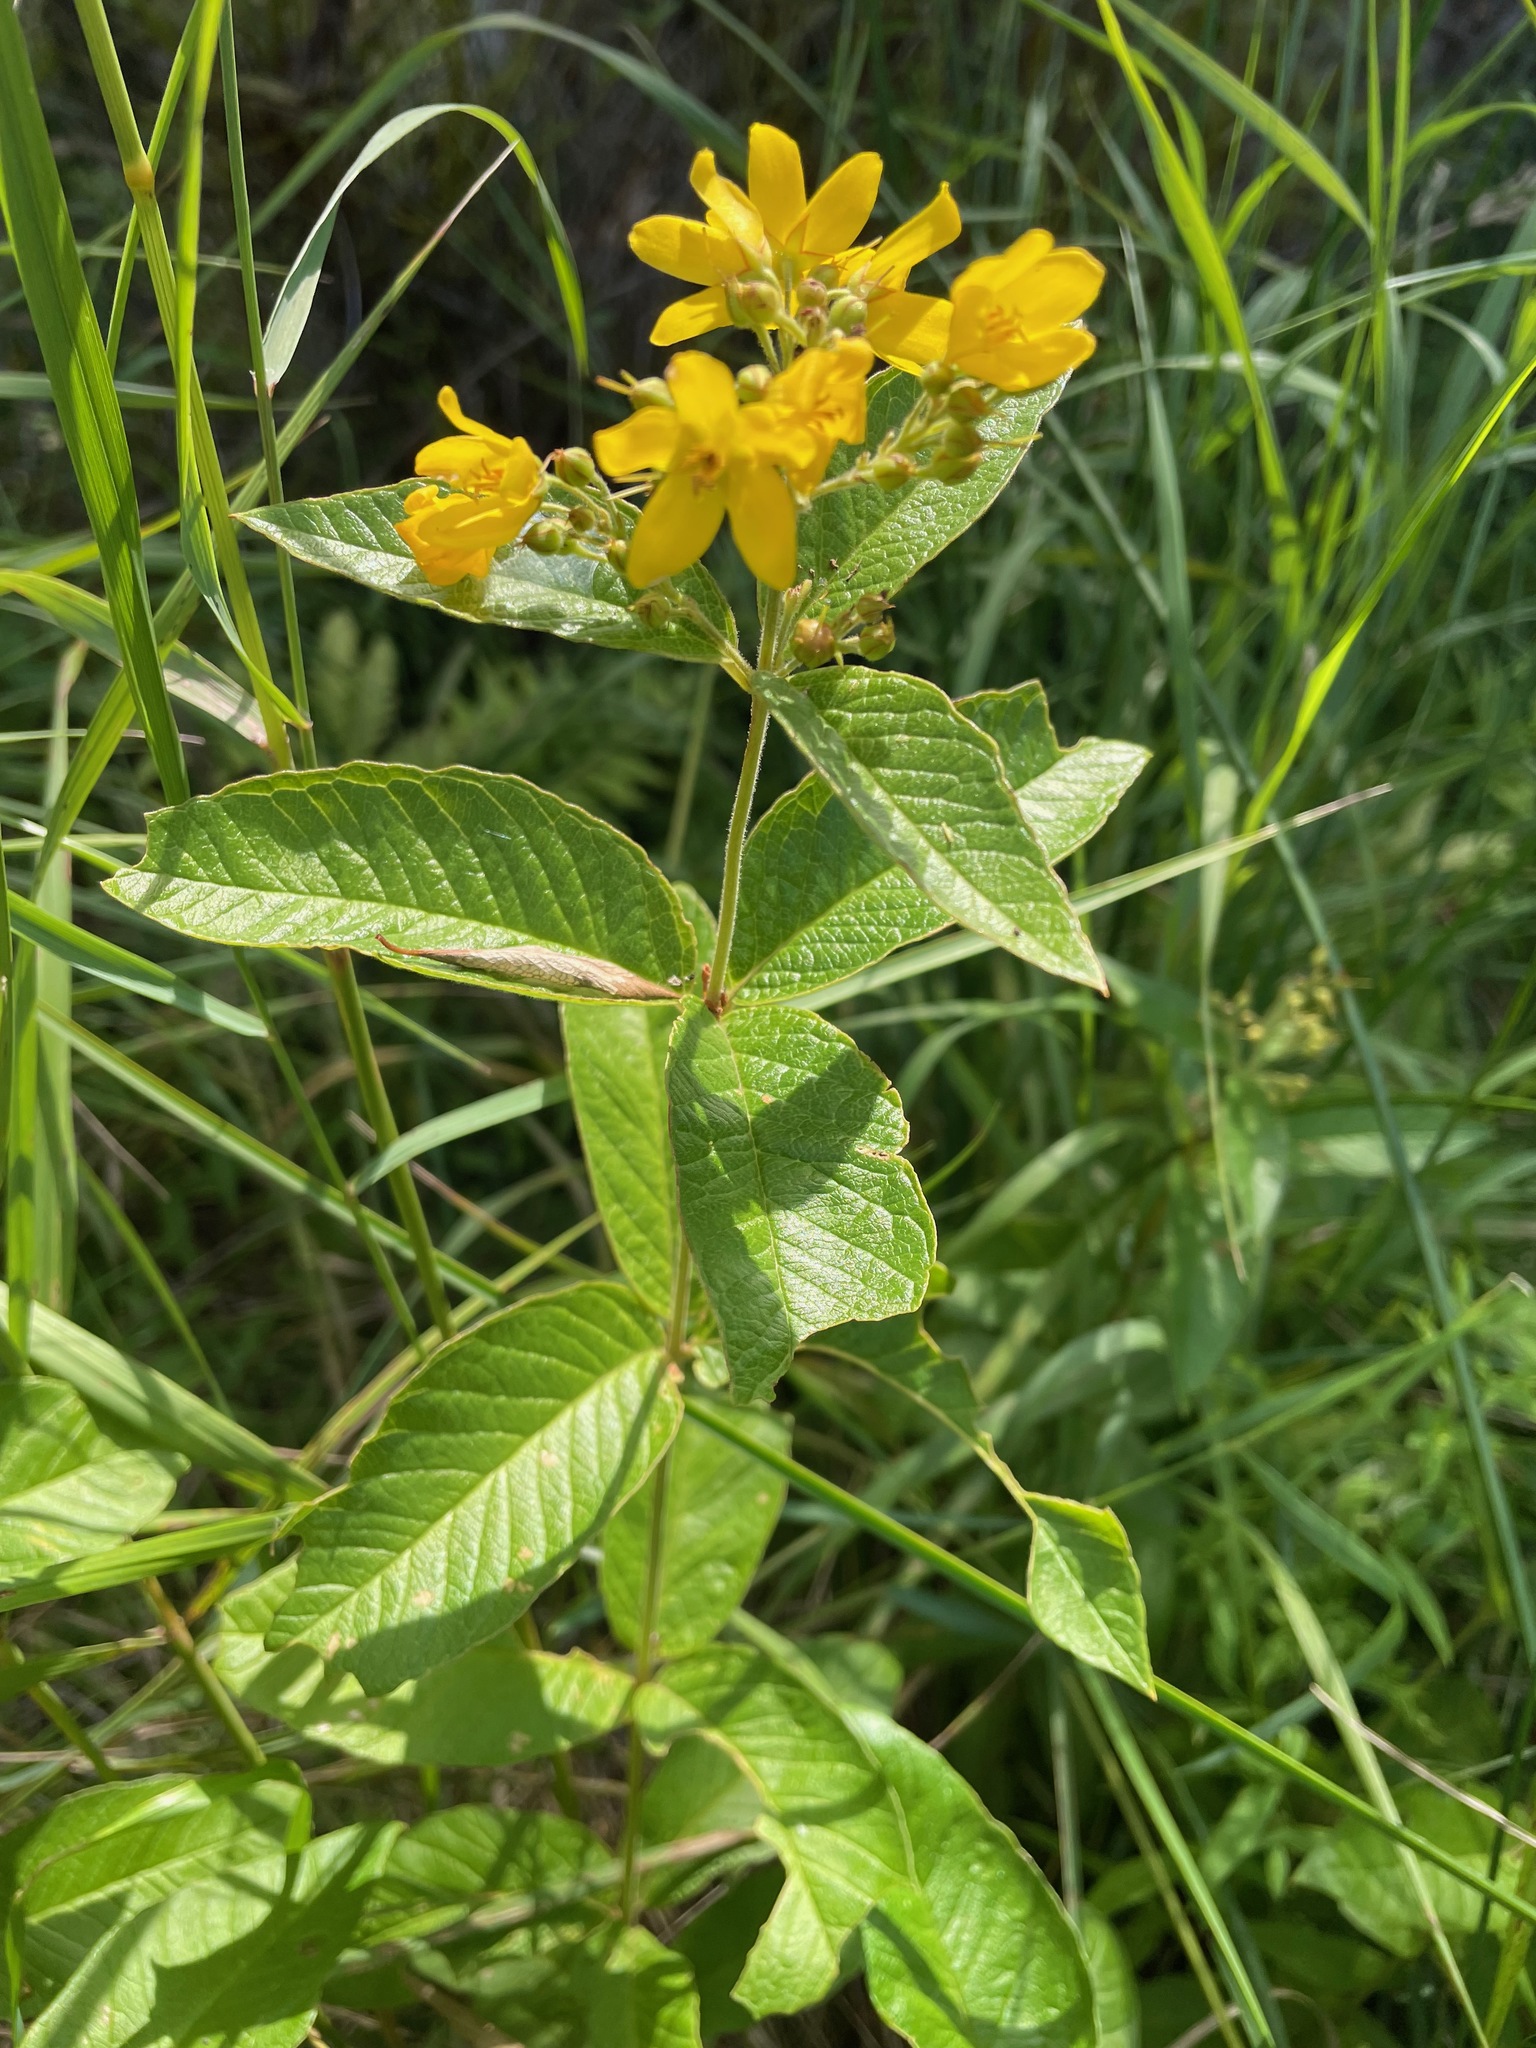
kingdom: Plantae
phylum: Tracheophyta
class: Magnoliopsida
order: Ericales
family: Primulaceae
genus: Lysimachia
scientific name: Lysimachia vulgaris
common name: Yellow loosestrife
